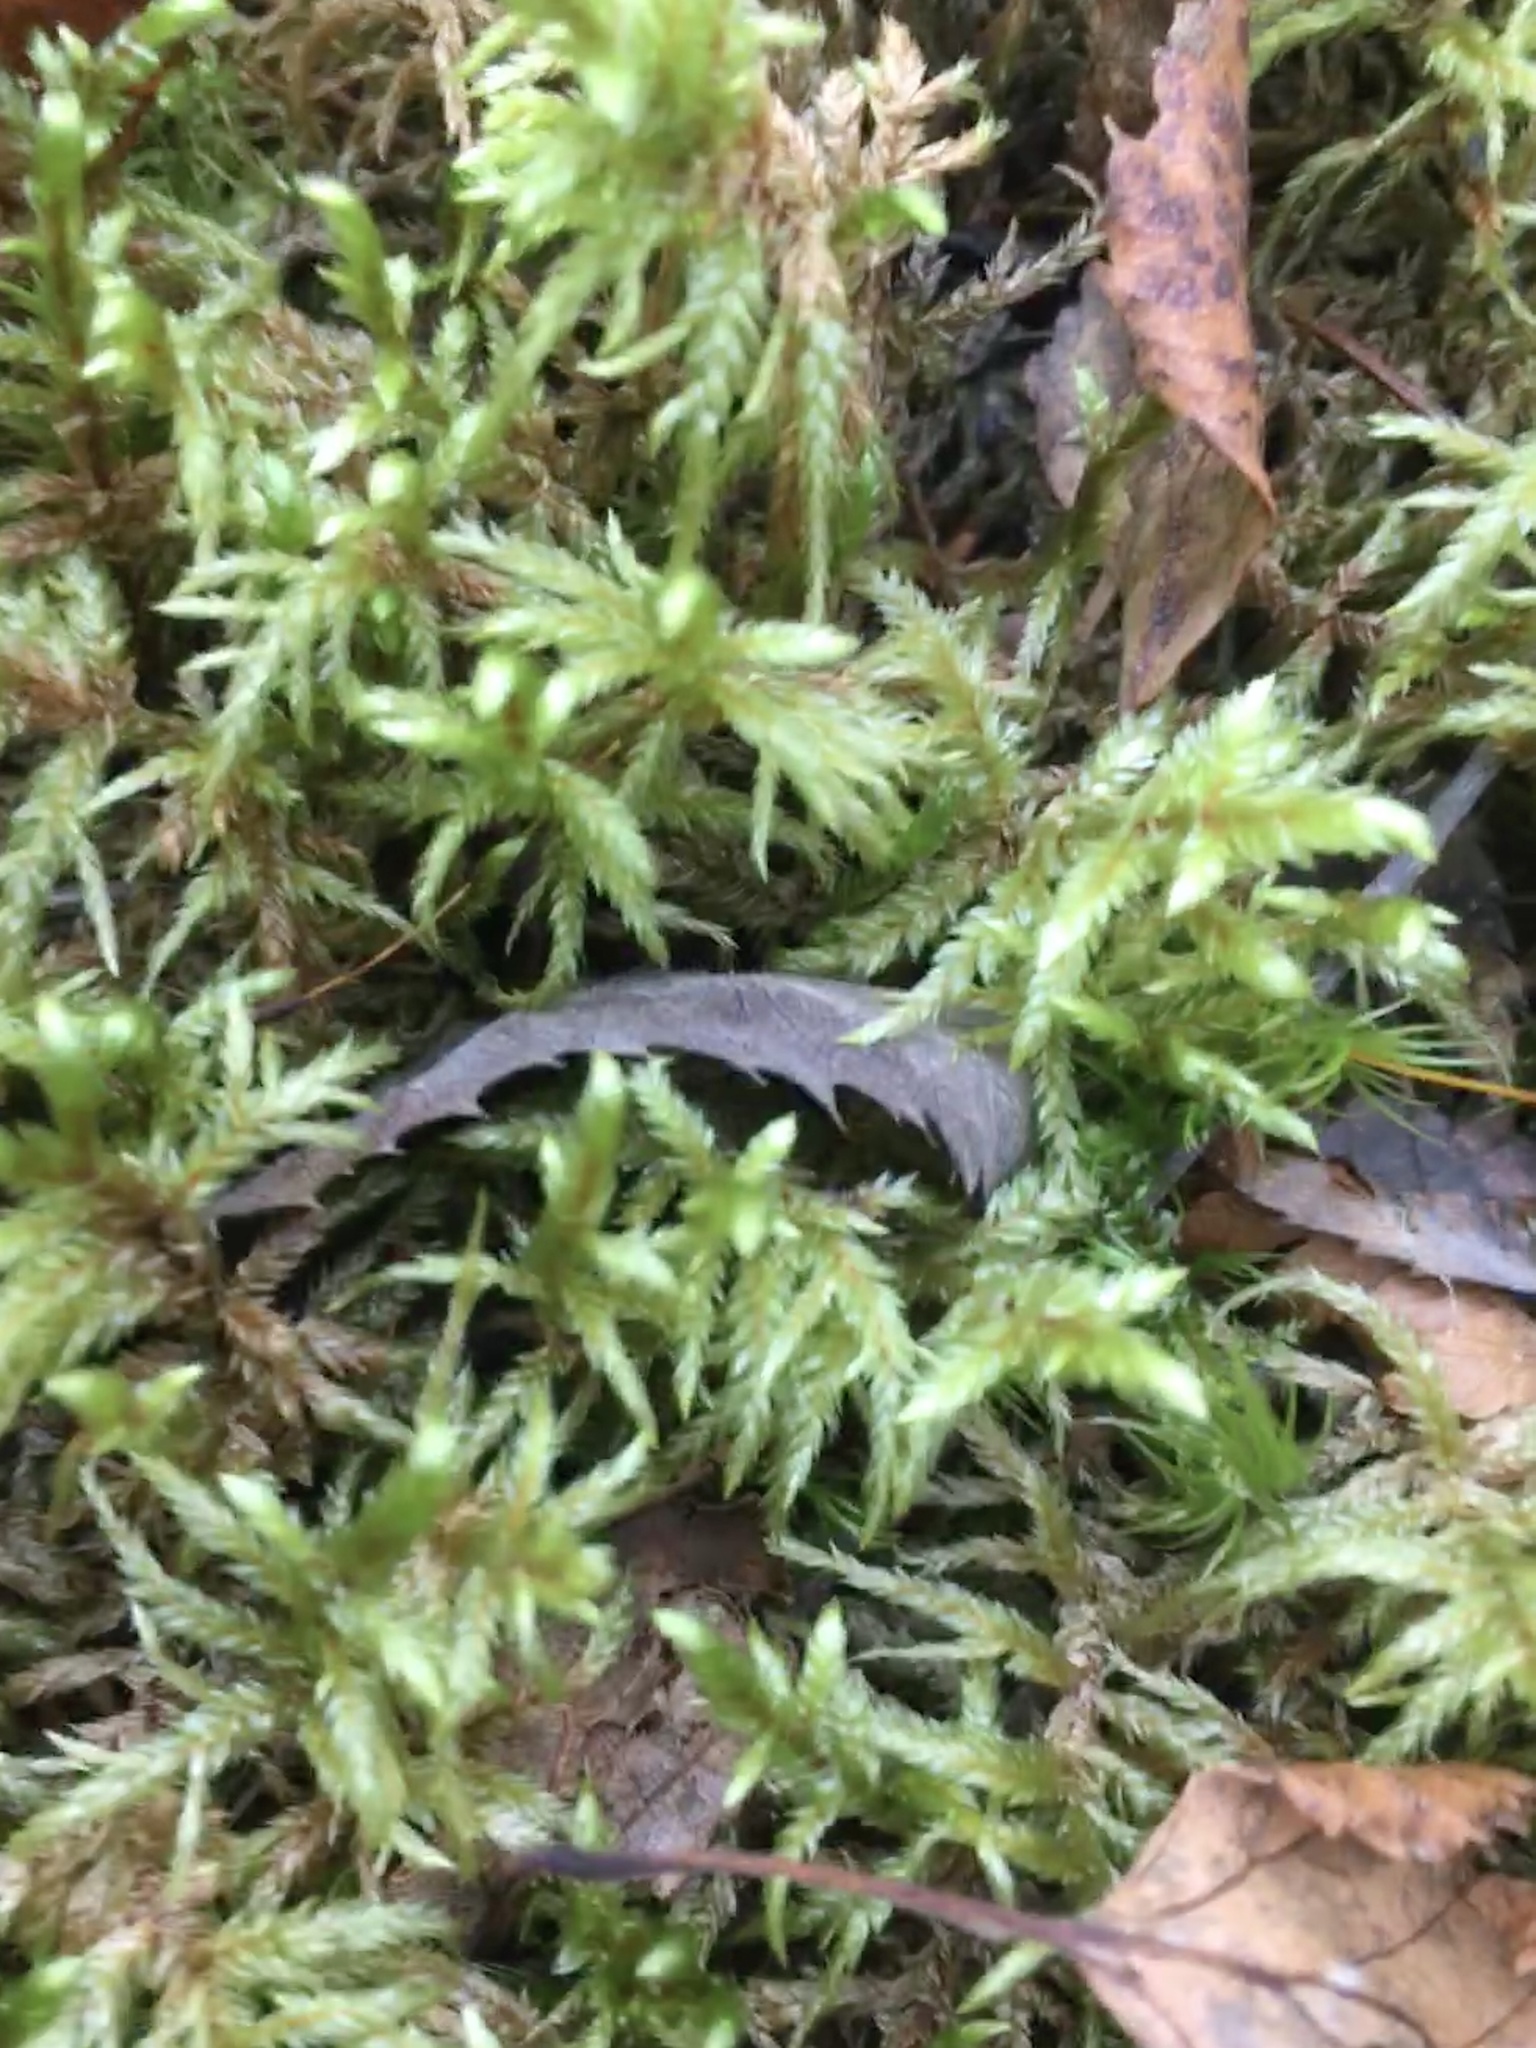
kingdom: Plantae
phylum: Bryophyta
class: Bryopsida
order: Hypnales
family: Hylocomiaceae
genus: Pleurozium
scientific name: Pleurozium schreberi
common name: Red-stemmed feather moss
